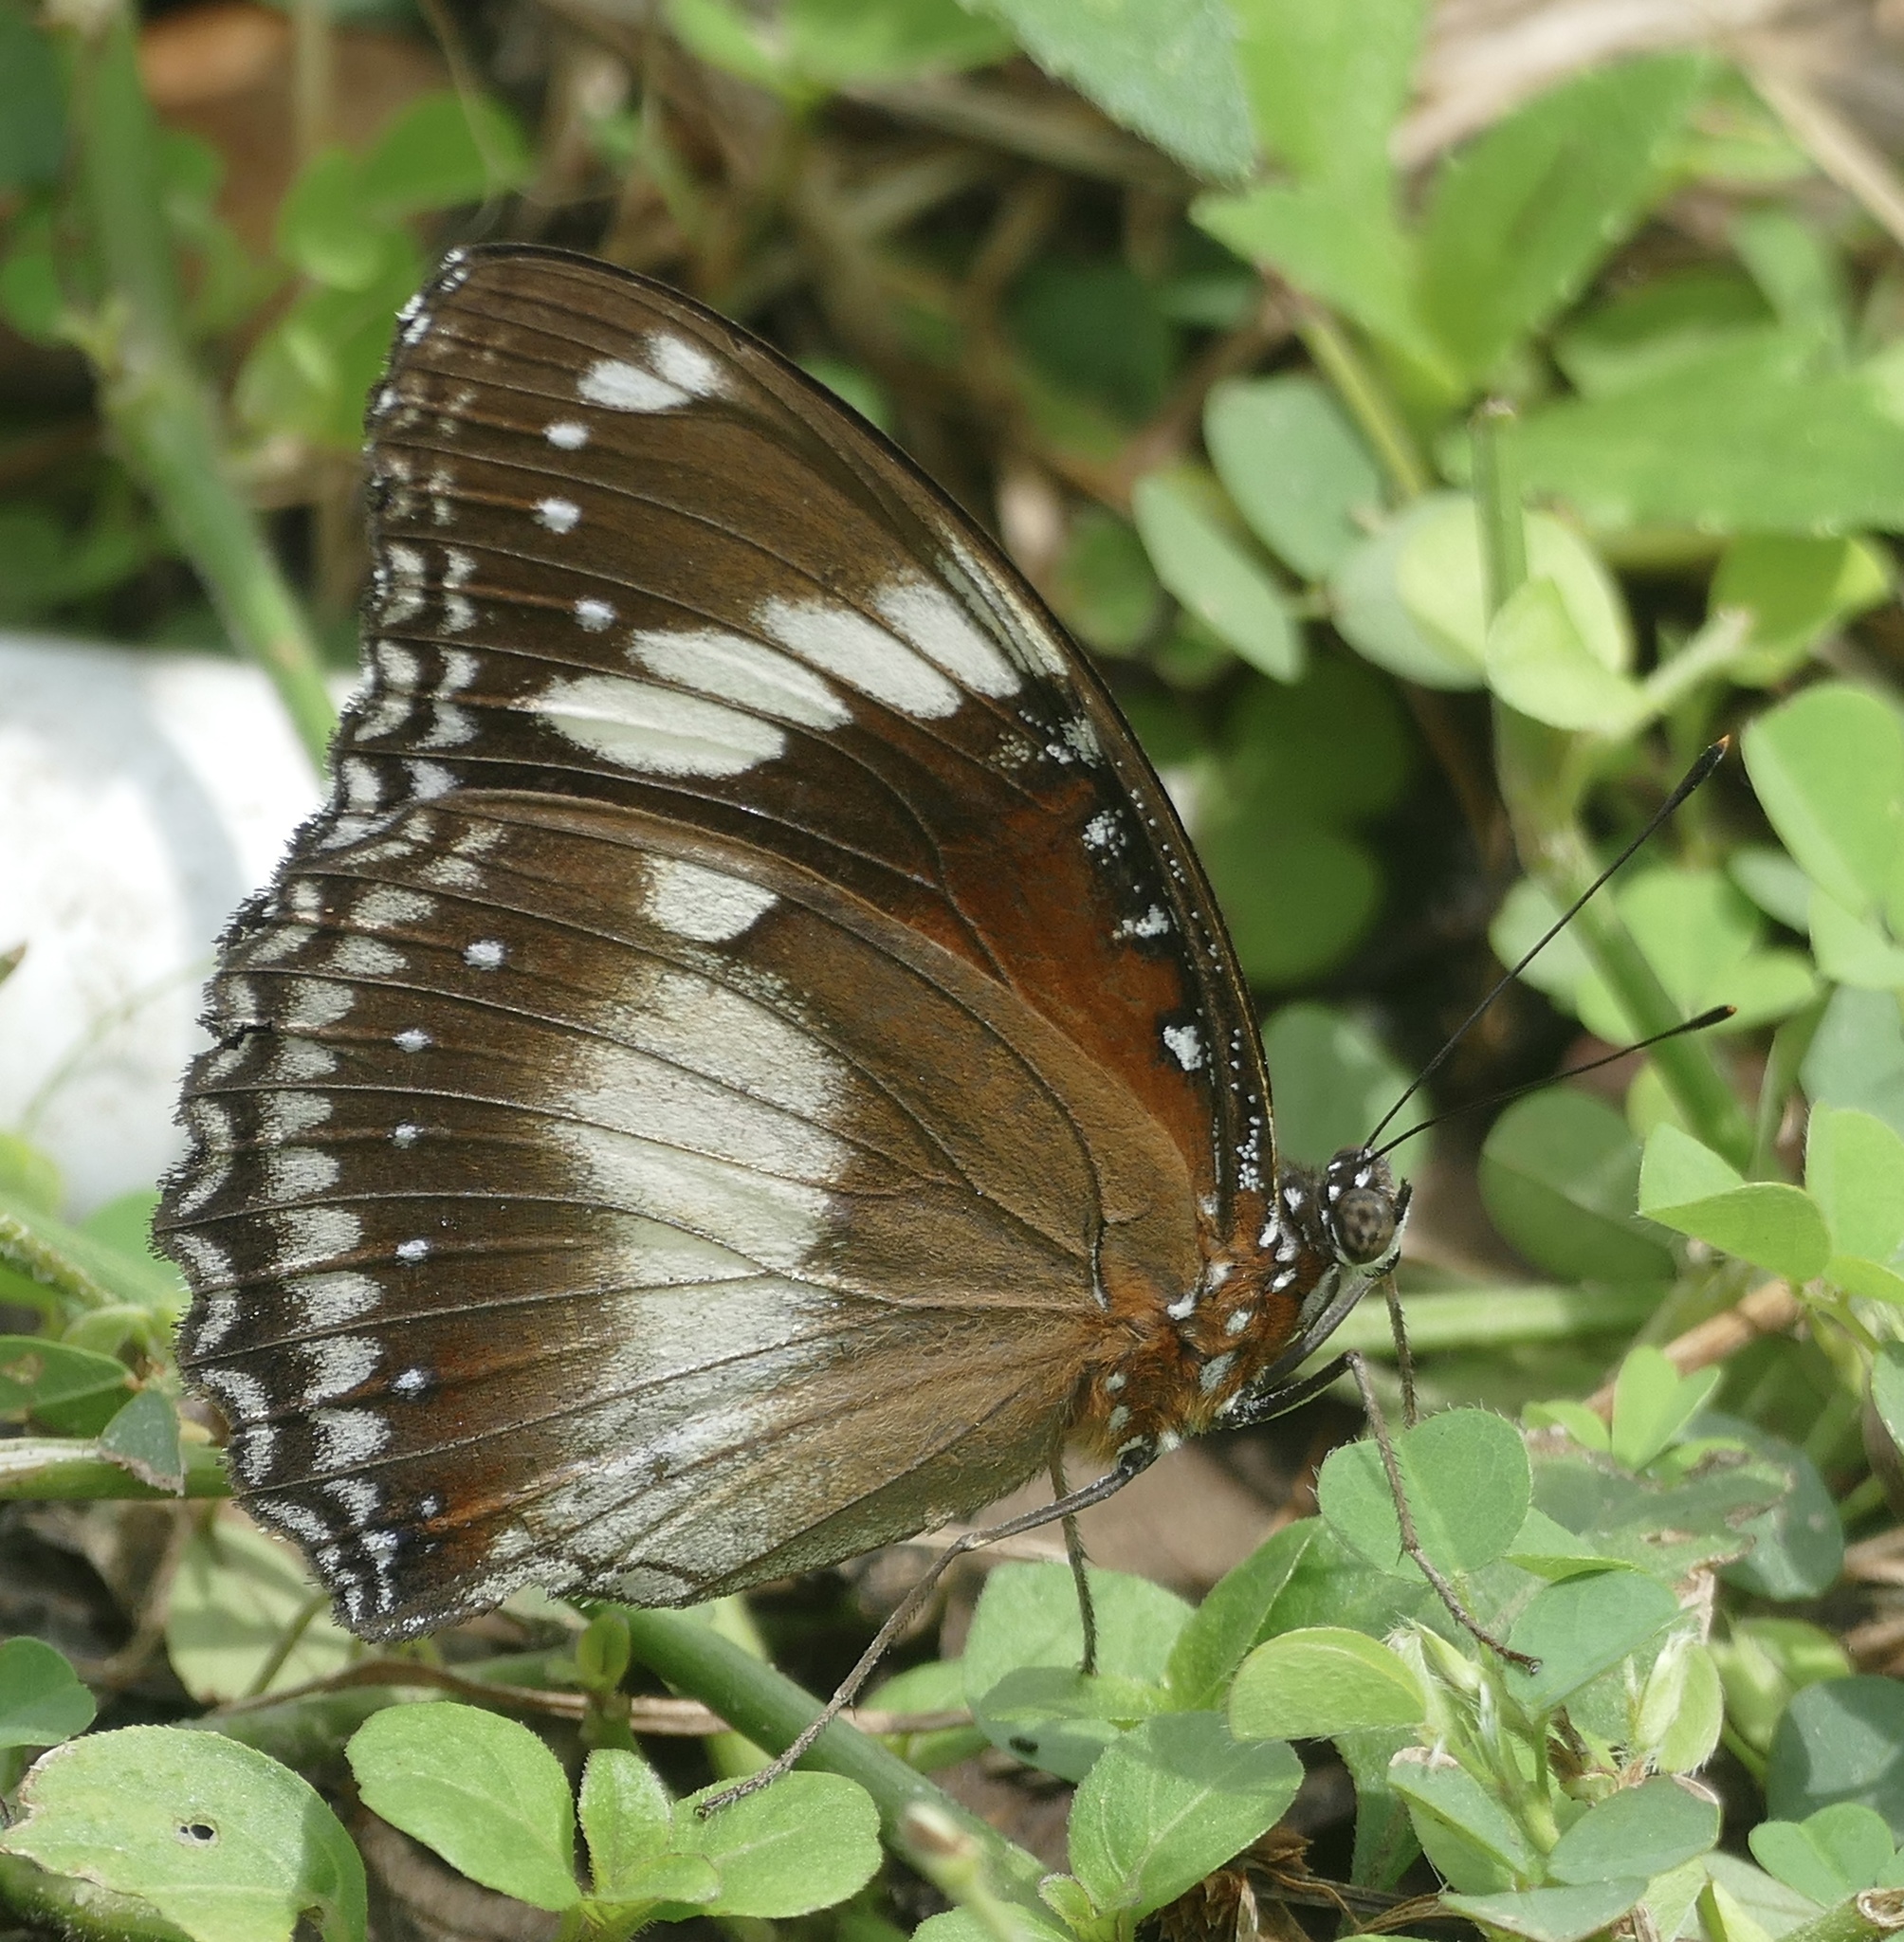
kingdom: Animalia
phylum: Arthropoda
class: Insecta
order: Lepidoptera
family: Nymphalidae
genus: Hypolimnas
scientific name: Hypolimnas bolina
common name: Great eggfly
